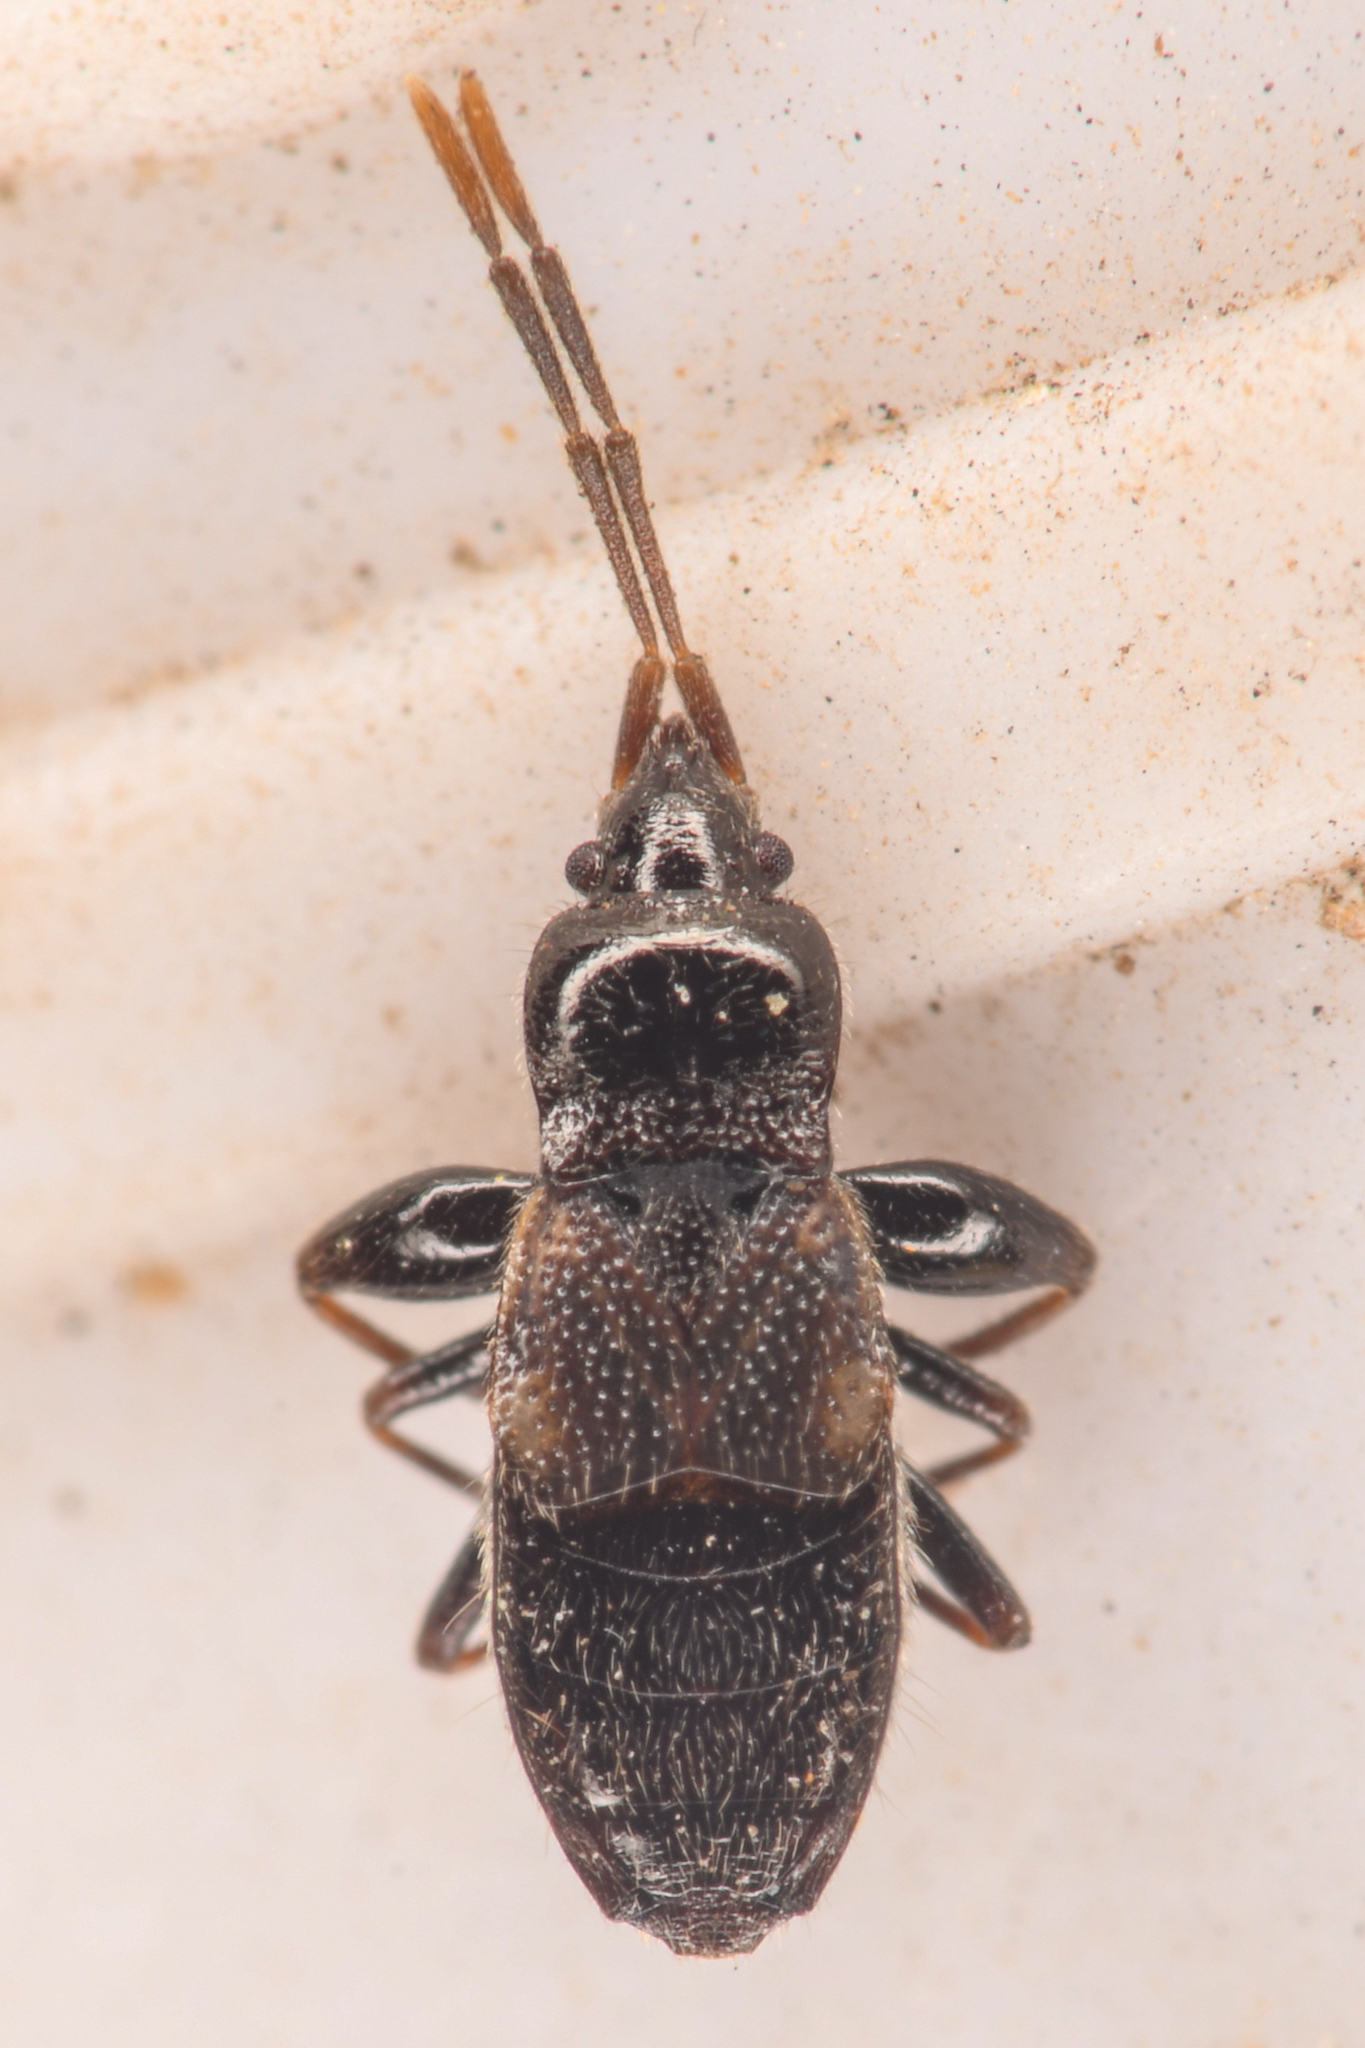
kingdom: Animalia
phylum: Arthropoda
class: Insecta
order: Hemiptera
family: Rhyparochromidae
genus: Thylochromus
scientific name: Thylochromus nitidulus
